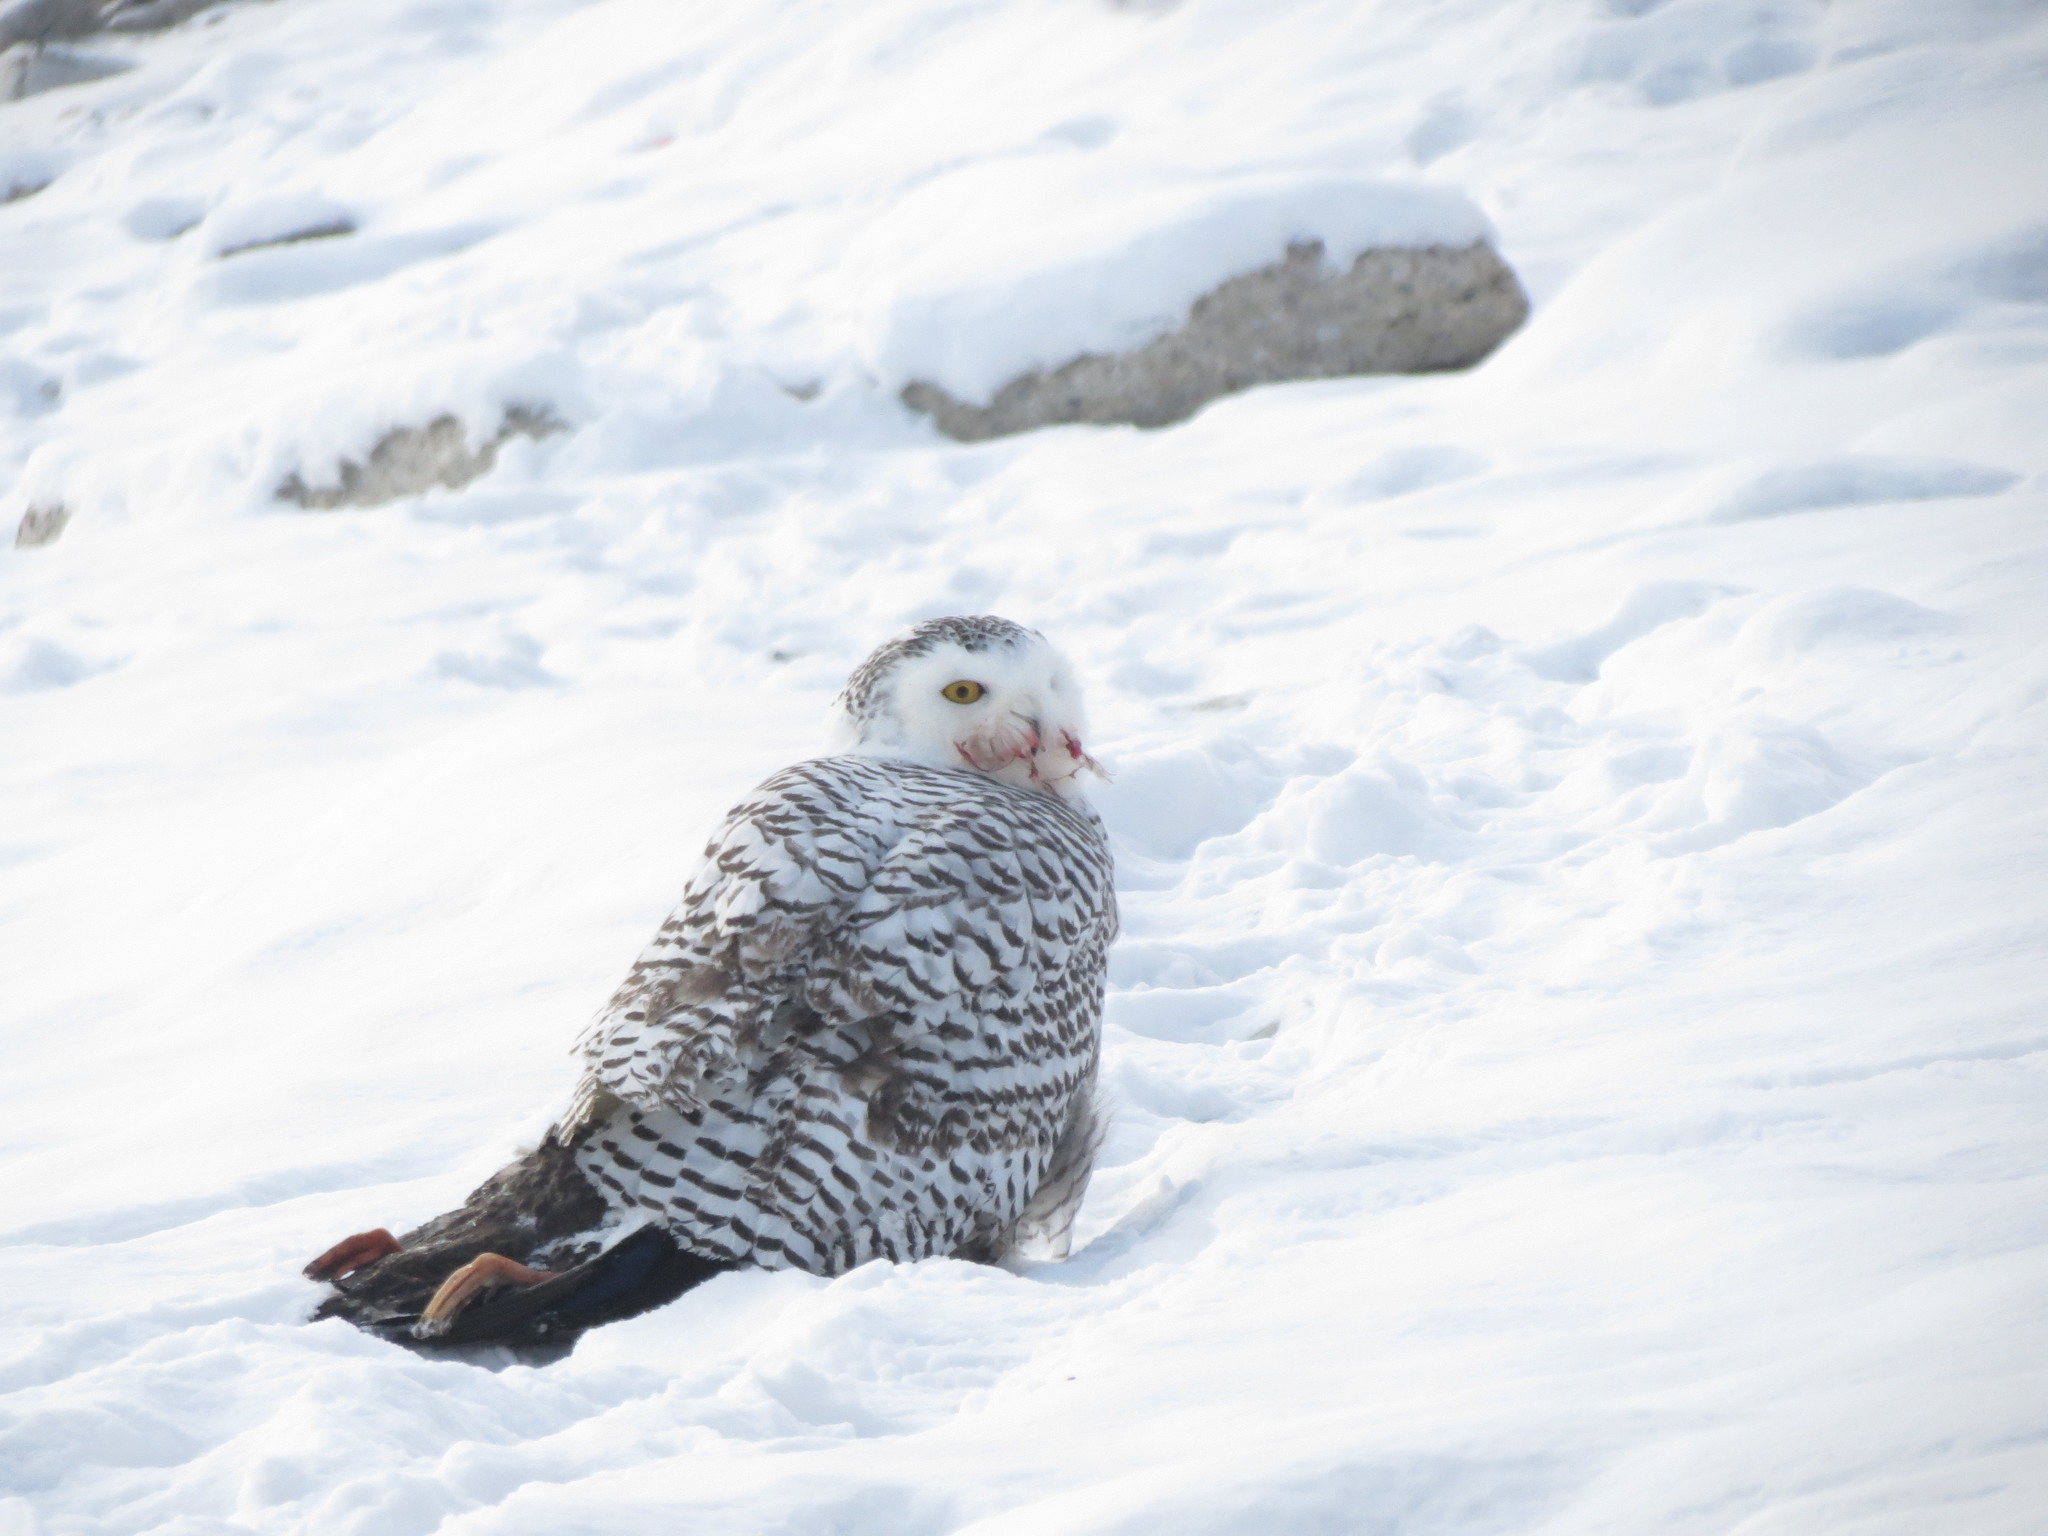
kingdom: Animalia
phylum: Chordata
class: Aves
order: Anseriformes
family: Anatidae
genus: Anas
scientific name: Anas rubripes
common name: American black duck
